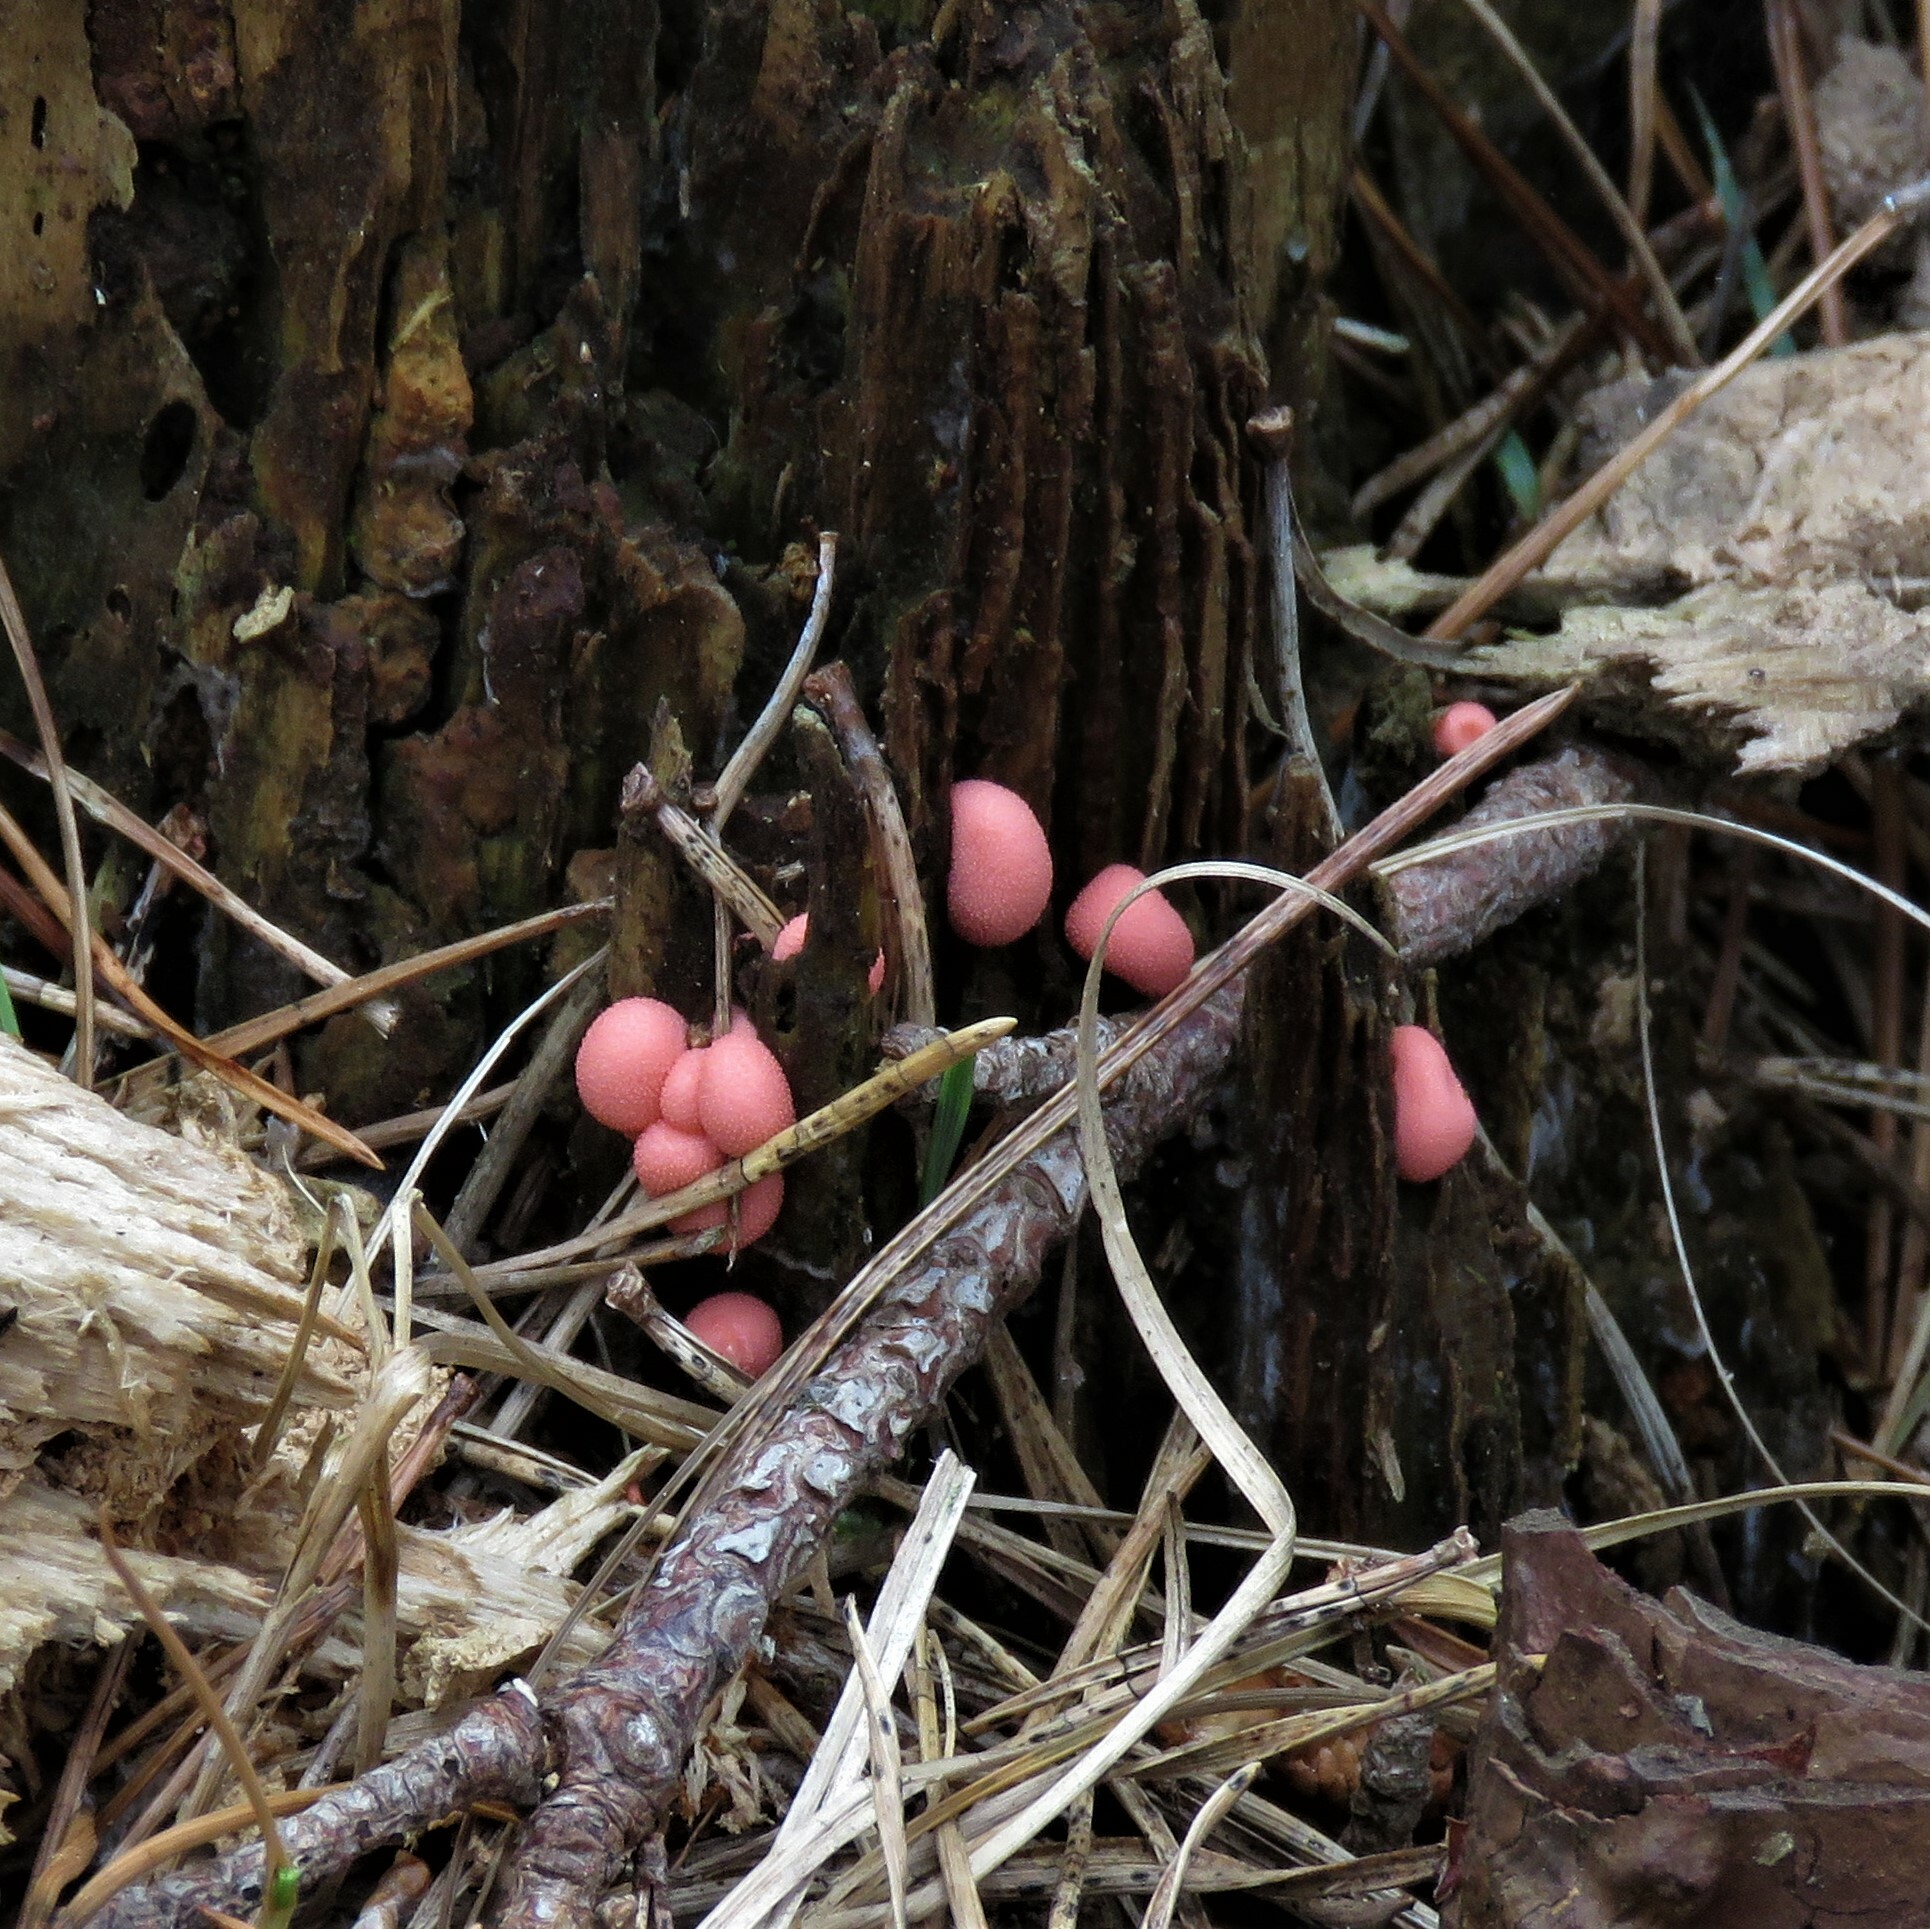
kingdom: Protozoa
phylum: Mycetozoa
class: Myxomycetes
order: Cribrariales
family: Tubiferaceae
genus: Lycogala
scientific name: Lycogala epidendrum
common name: Wolf's milk
